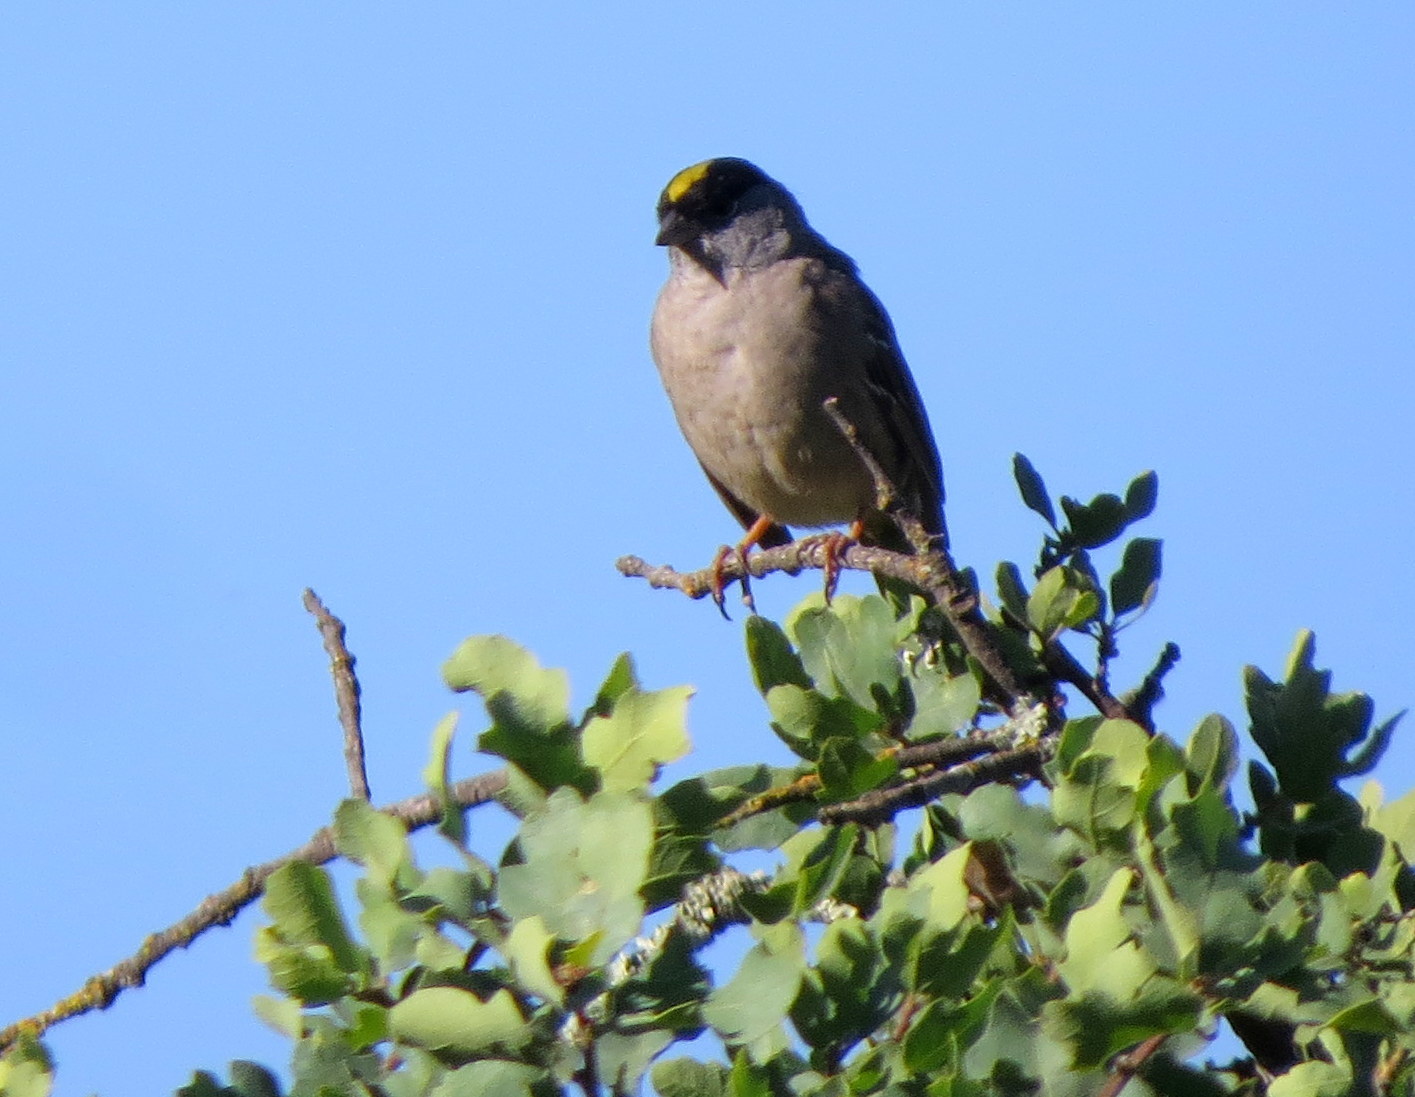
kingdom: Animalia
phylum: Chordata
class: Aves
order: Passeriformes
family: Passerellidae
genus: Zonotrichia
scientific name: Zonotrichia atricapilla
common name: Golden-crowned sparrow
